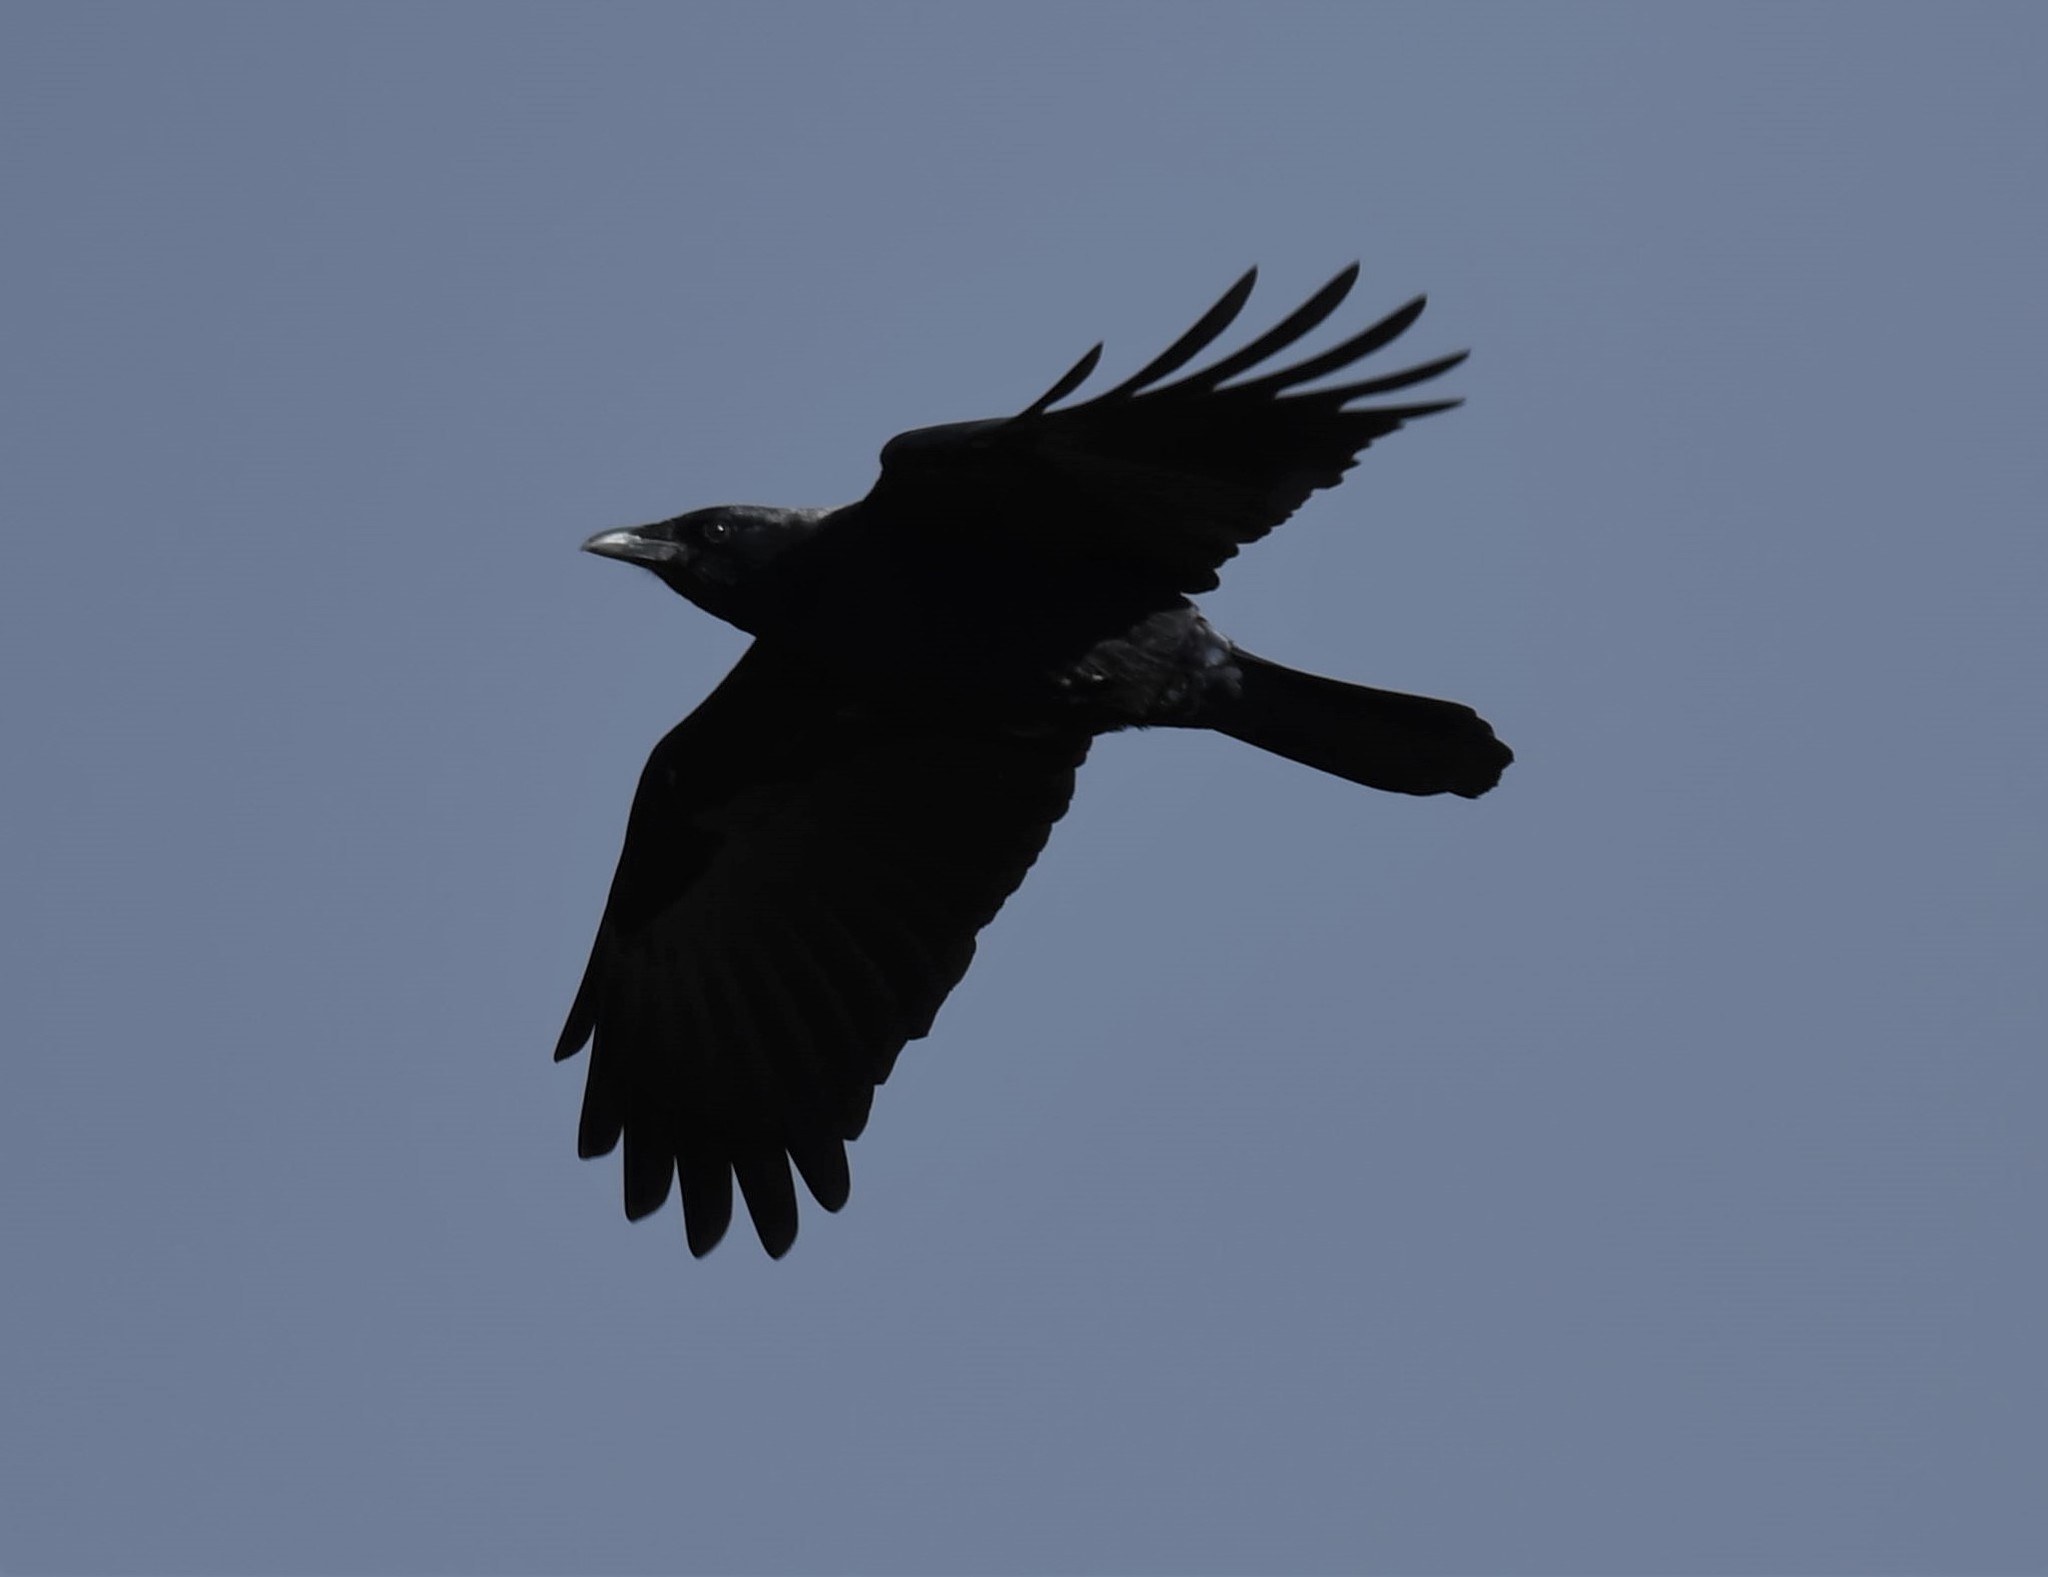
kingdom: Animalia
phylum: Chordata
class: Aves
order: Passeriformes
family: Corvidae
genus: Corvus
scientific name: Corvus brachyrhynchos
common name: American crow
